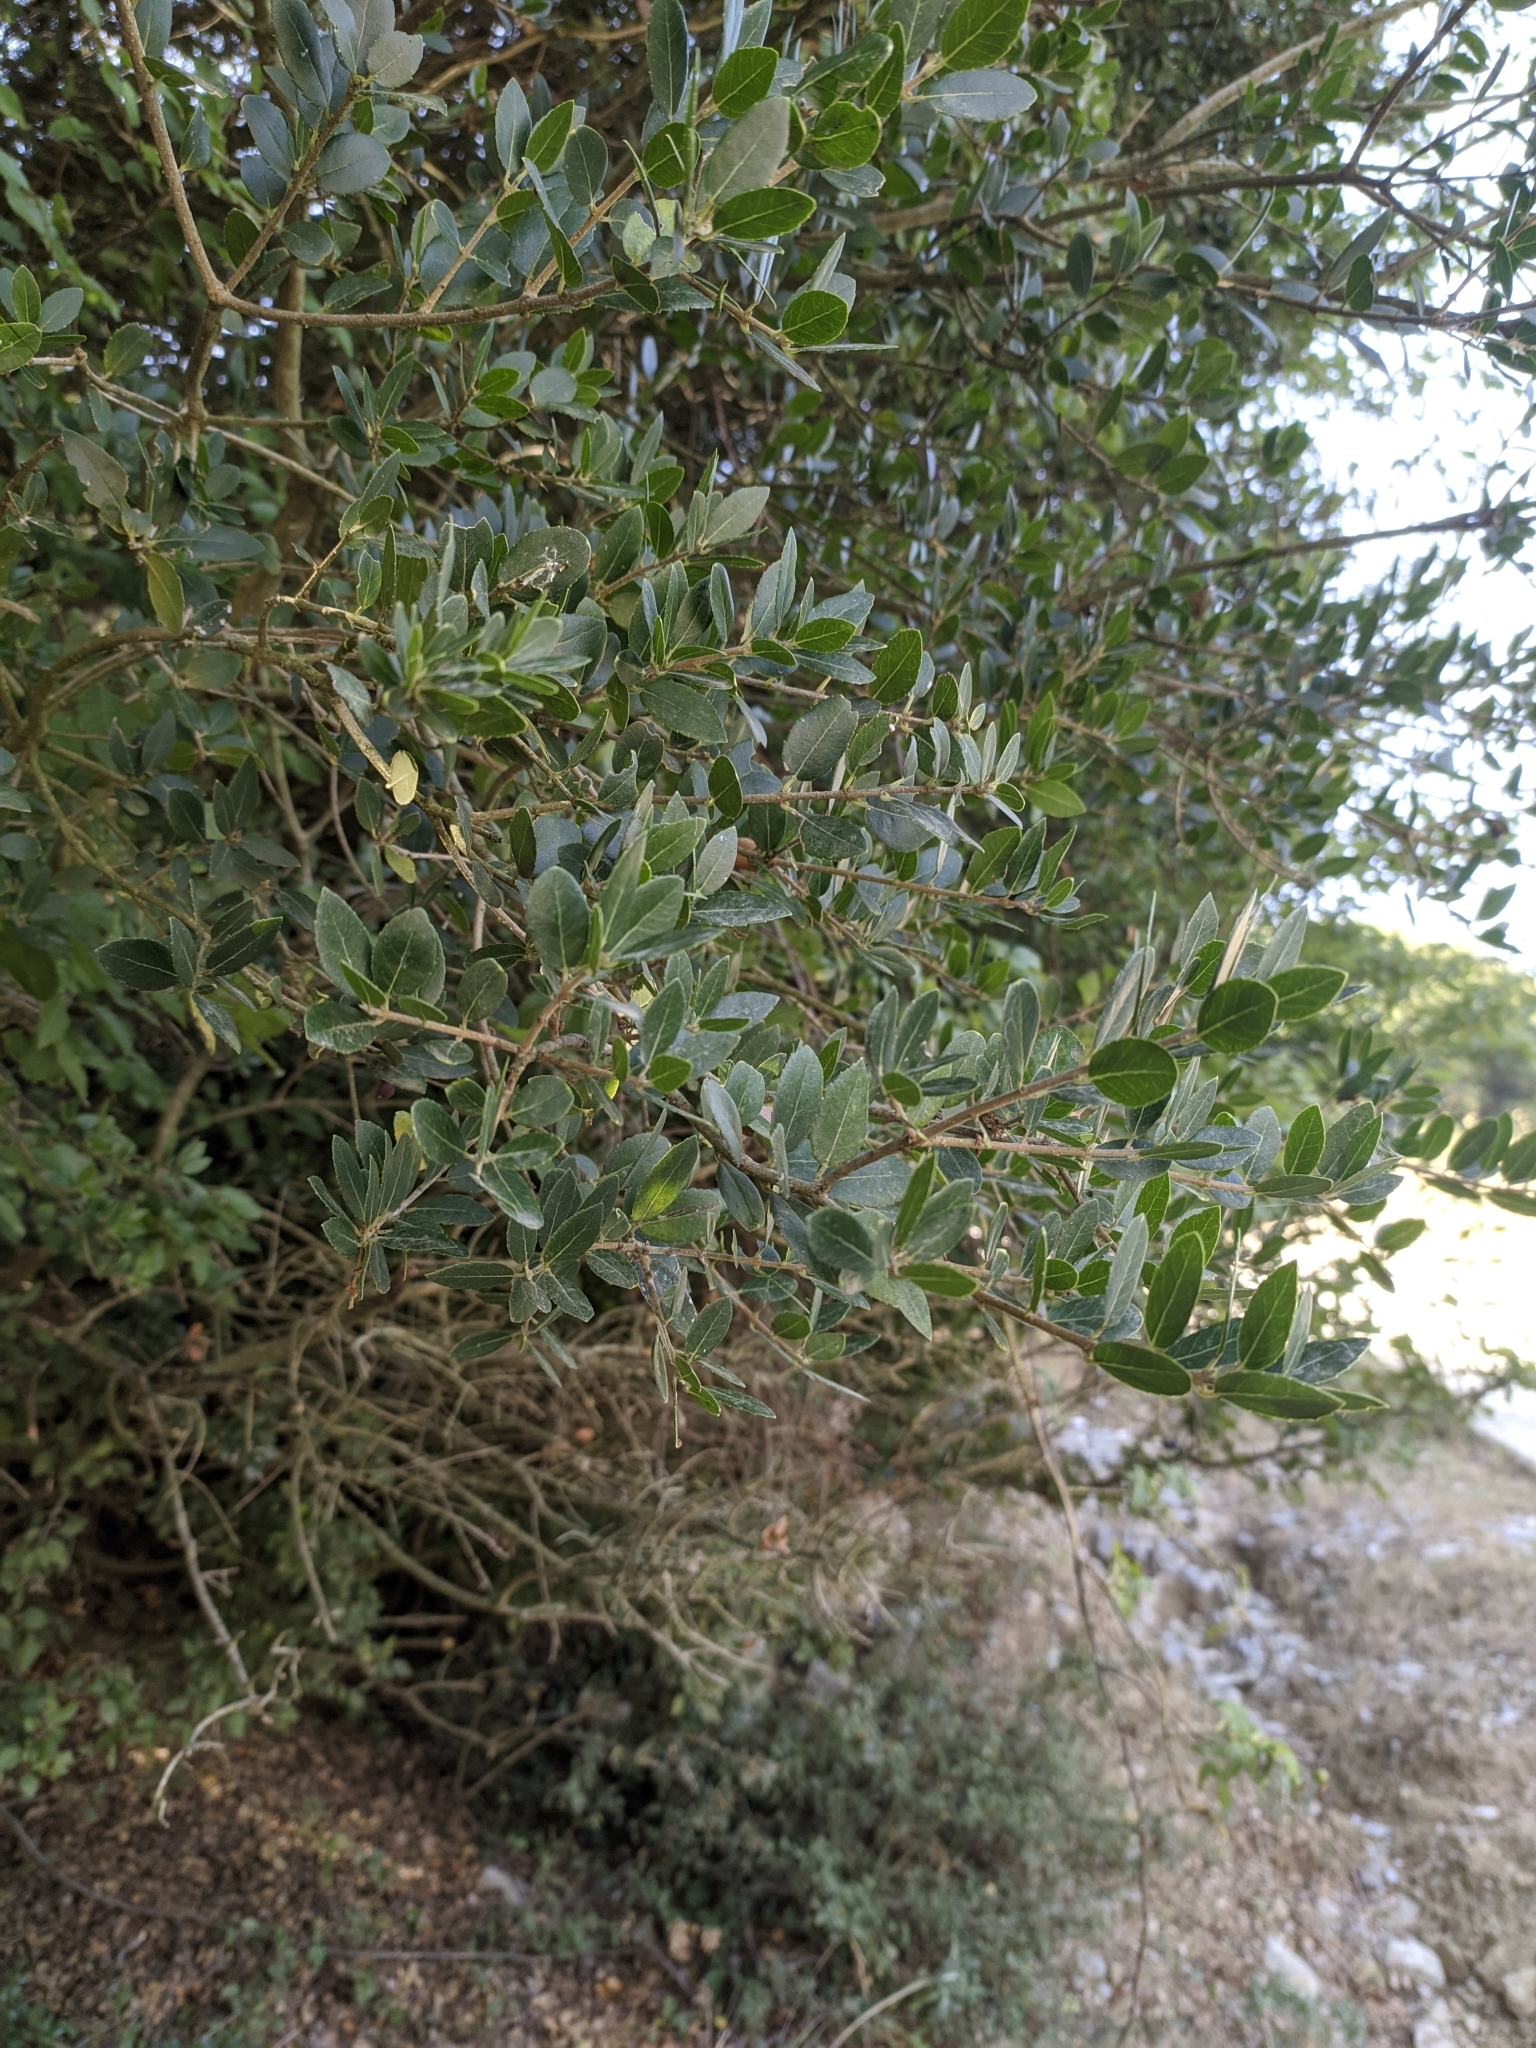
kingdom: Plantae
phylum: Tracheophyta
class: Magnoliopsida
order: Lamiales
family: Oleaceae
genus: Phillyrea
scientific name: Phillyrea latifolia
